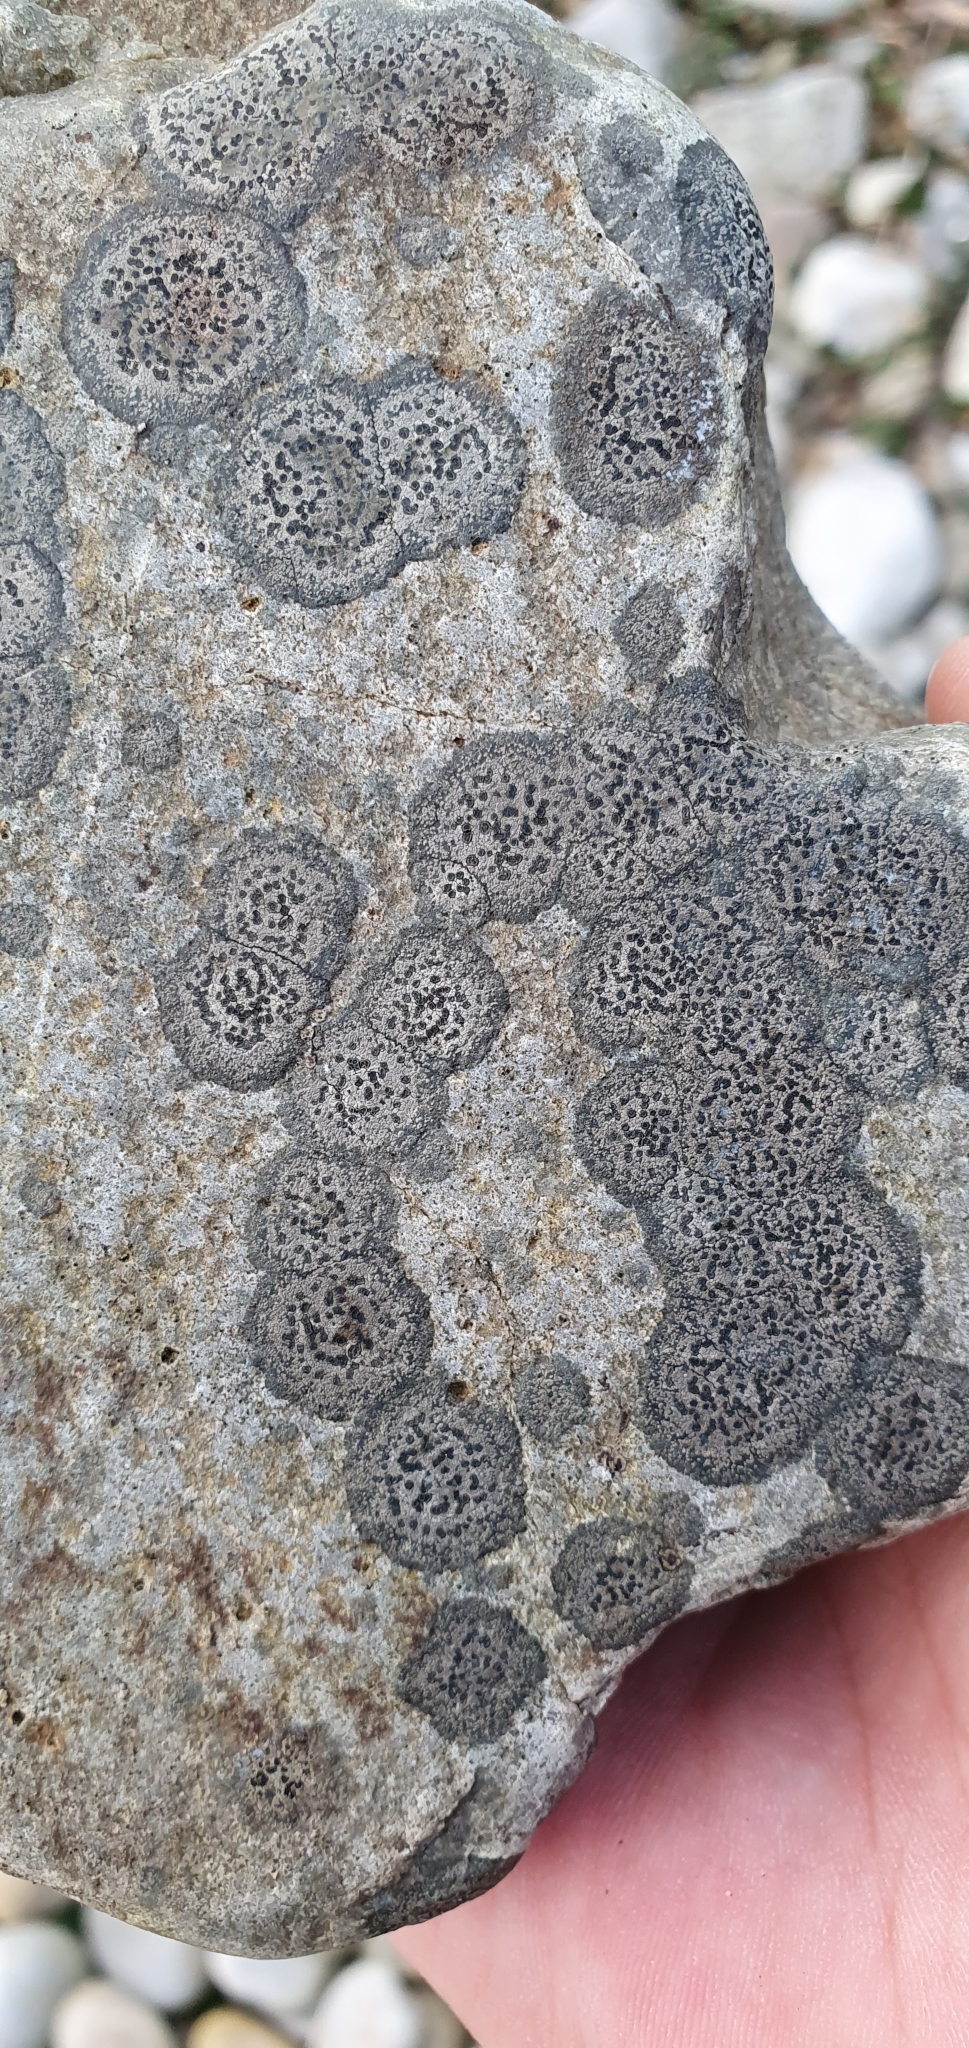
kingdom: Fungi
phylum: Ascomycota
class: Lecanoromycetes
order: Rhizocarpales
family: Rhizocarpaceae
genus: Rhizocarpon
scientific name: Rhizocarpon reductum
